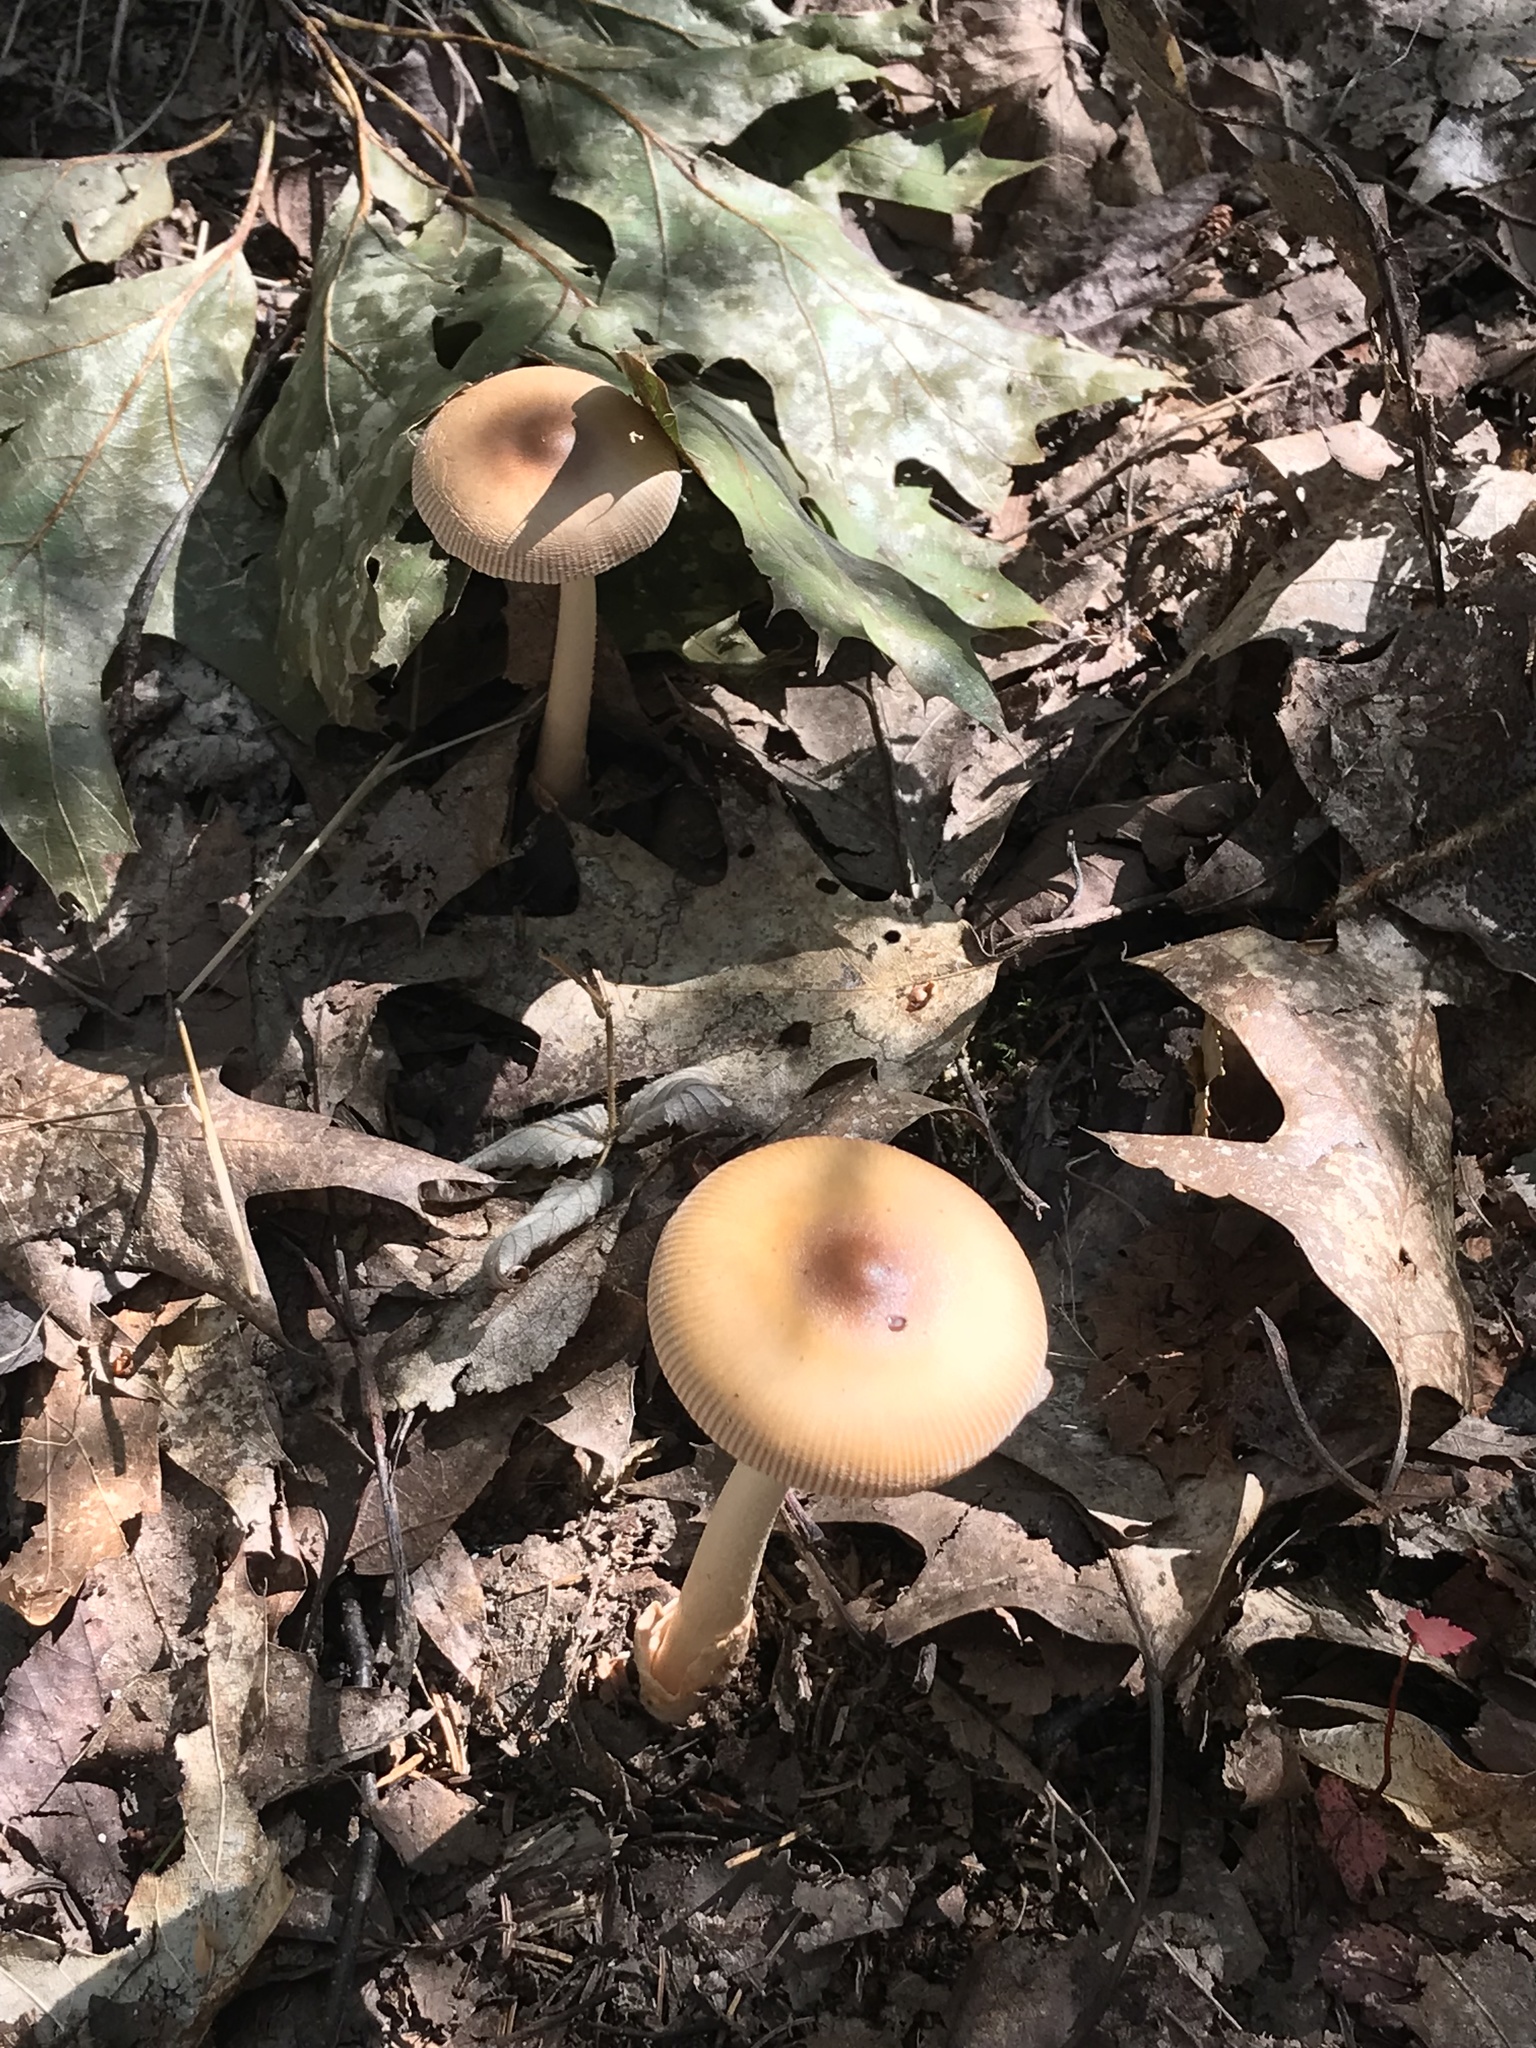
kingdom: Fungi
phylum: Basidiomycota
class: Agaricomycetes
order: Agaricales
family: Amanitaceae
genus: Amanita
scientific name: Amanita fulva
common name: Tawny grisette
